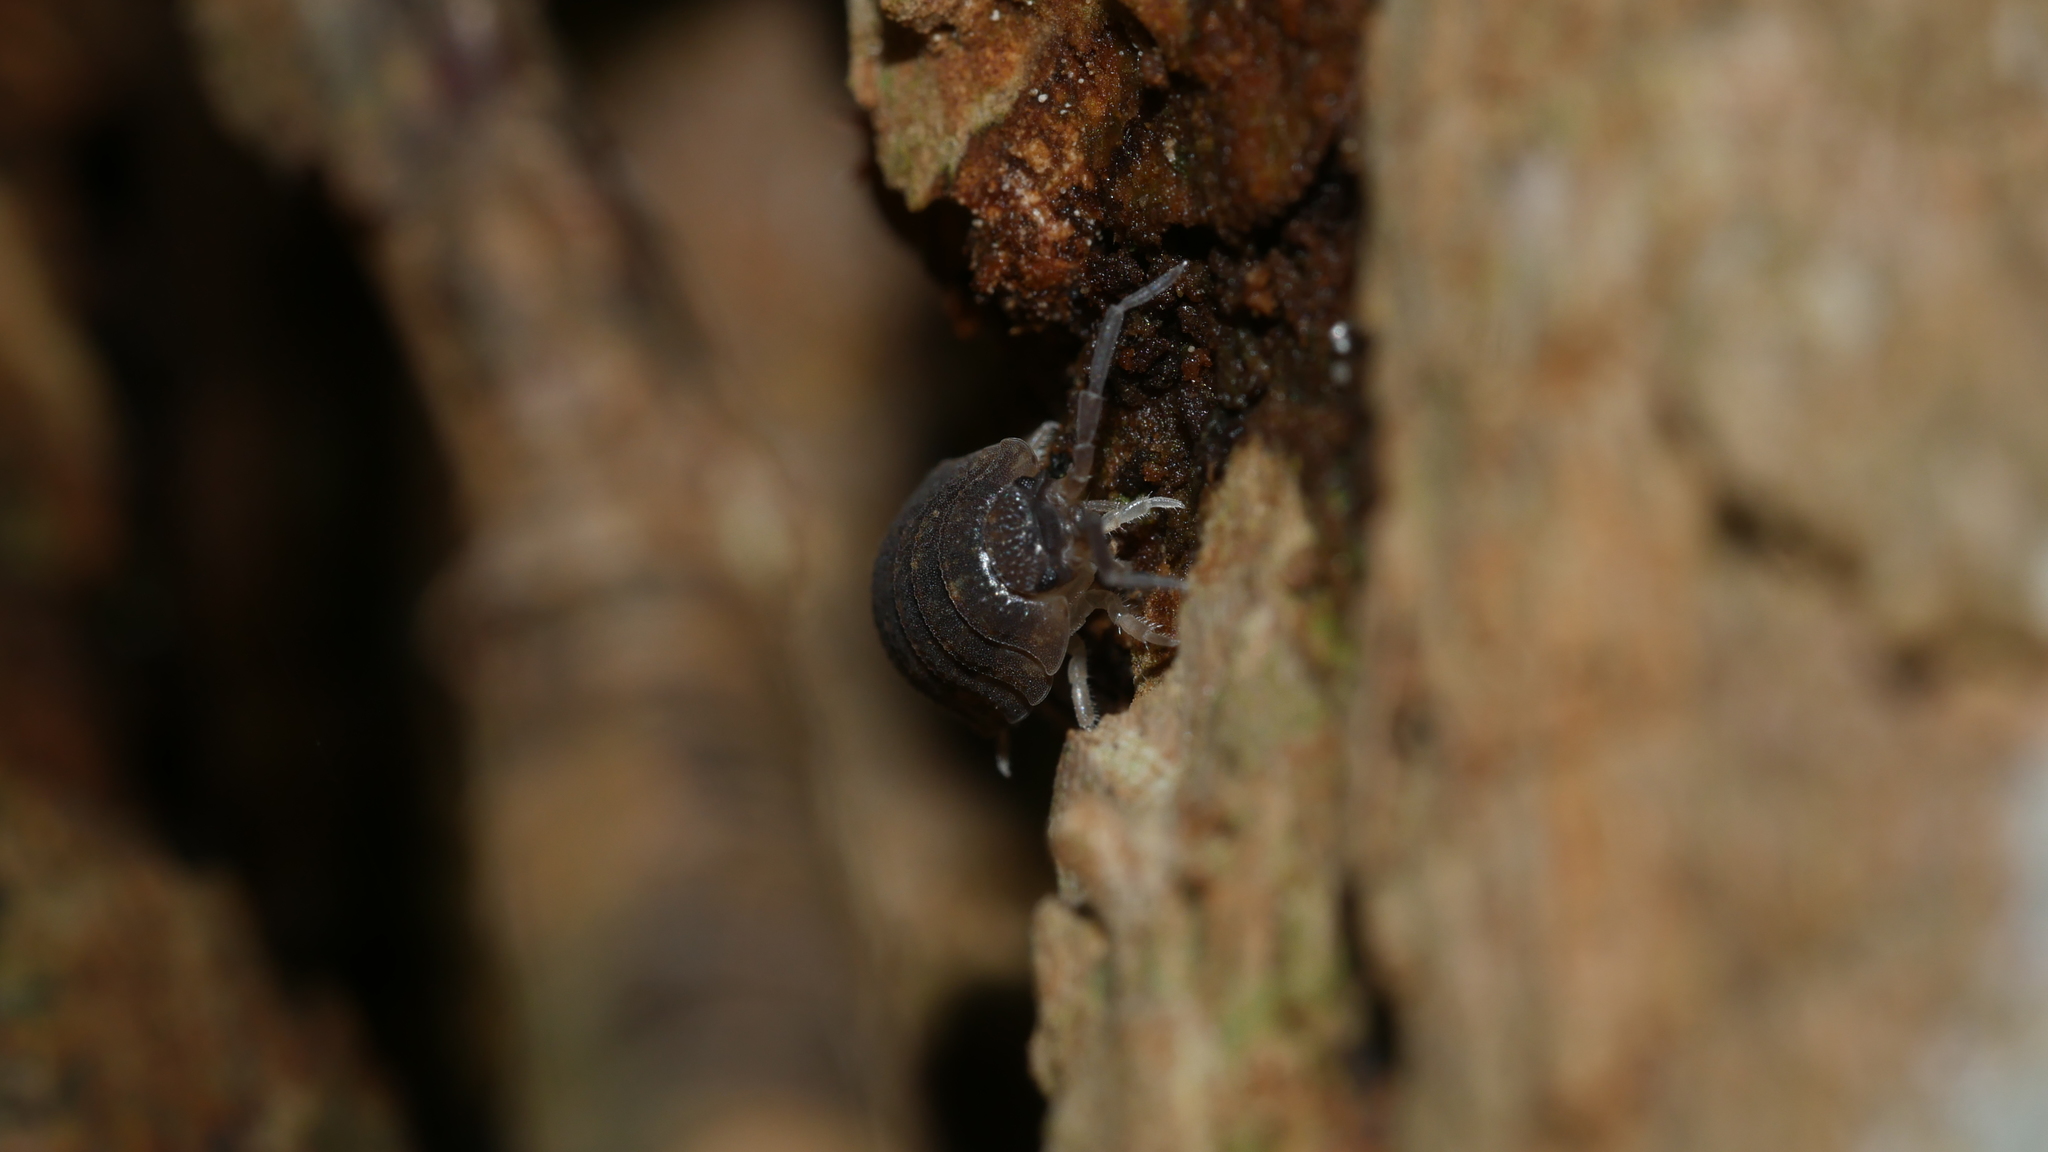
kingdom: Animalia
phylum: Arthropoda
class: Malacostraca
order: Isopoda
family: Porcellionidae
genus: Porcellio
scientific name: Porcellio scaber
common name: Common rough woodlouse
